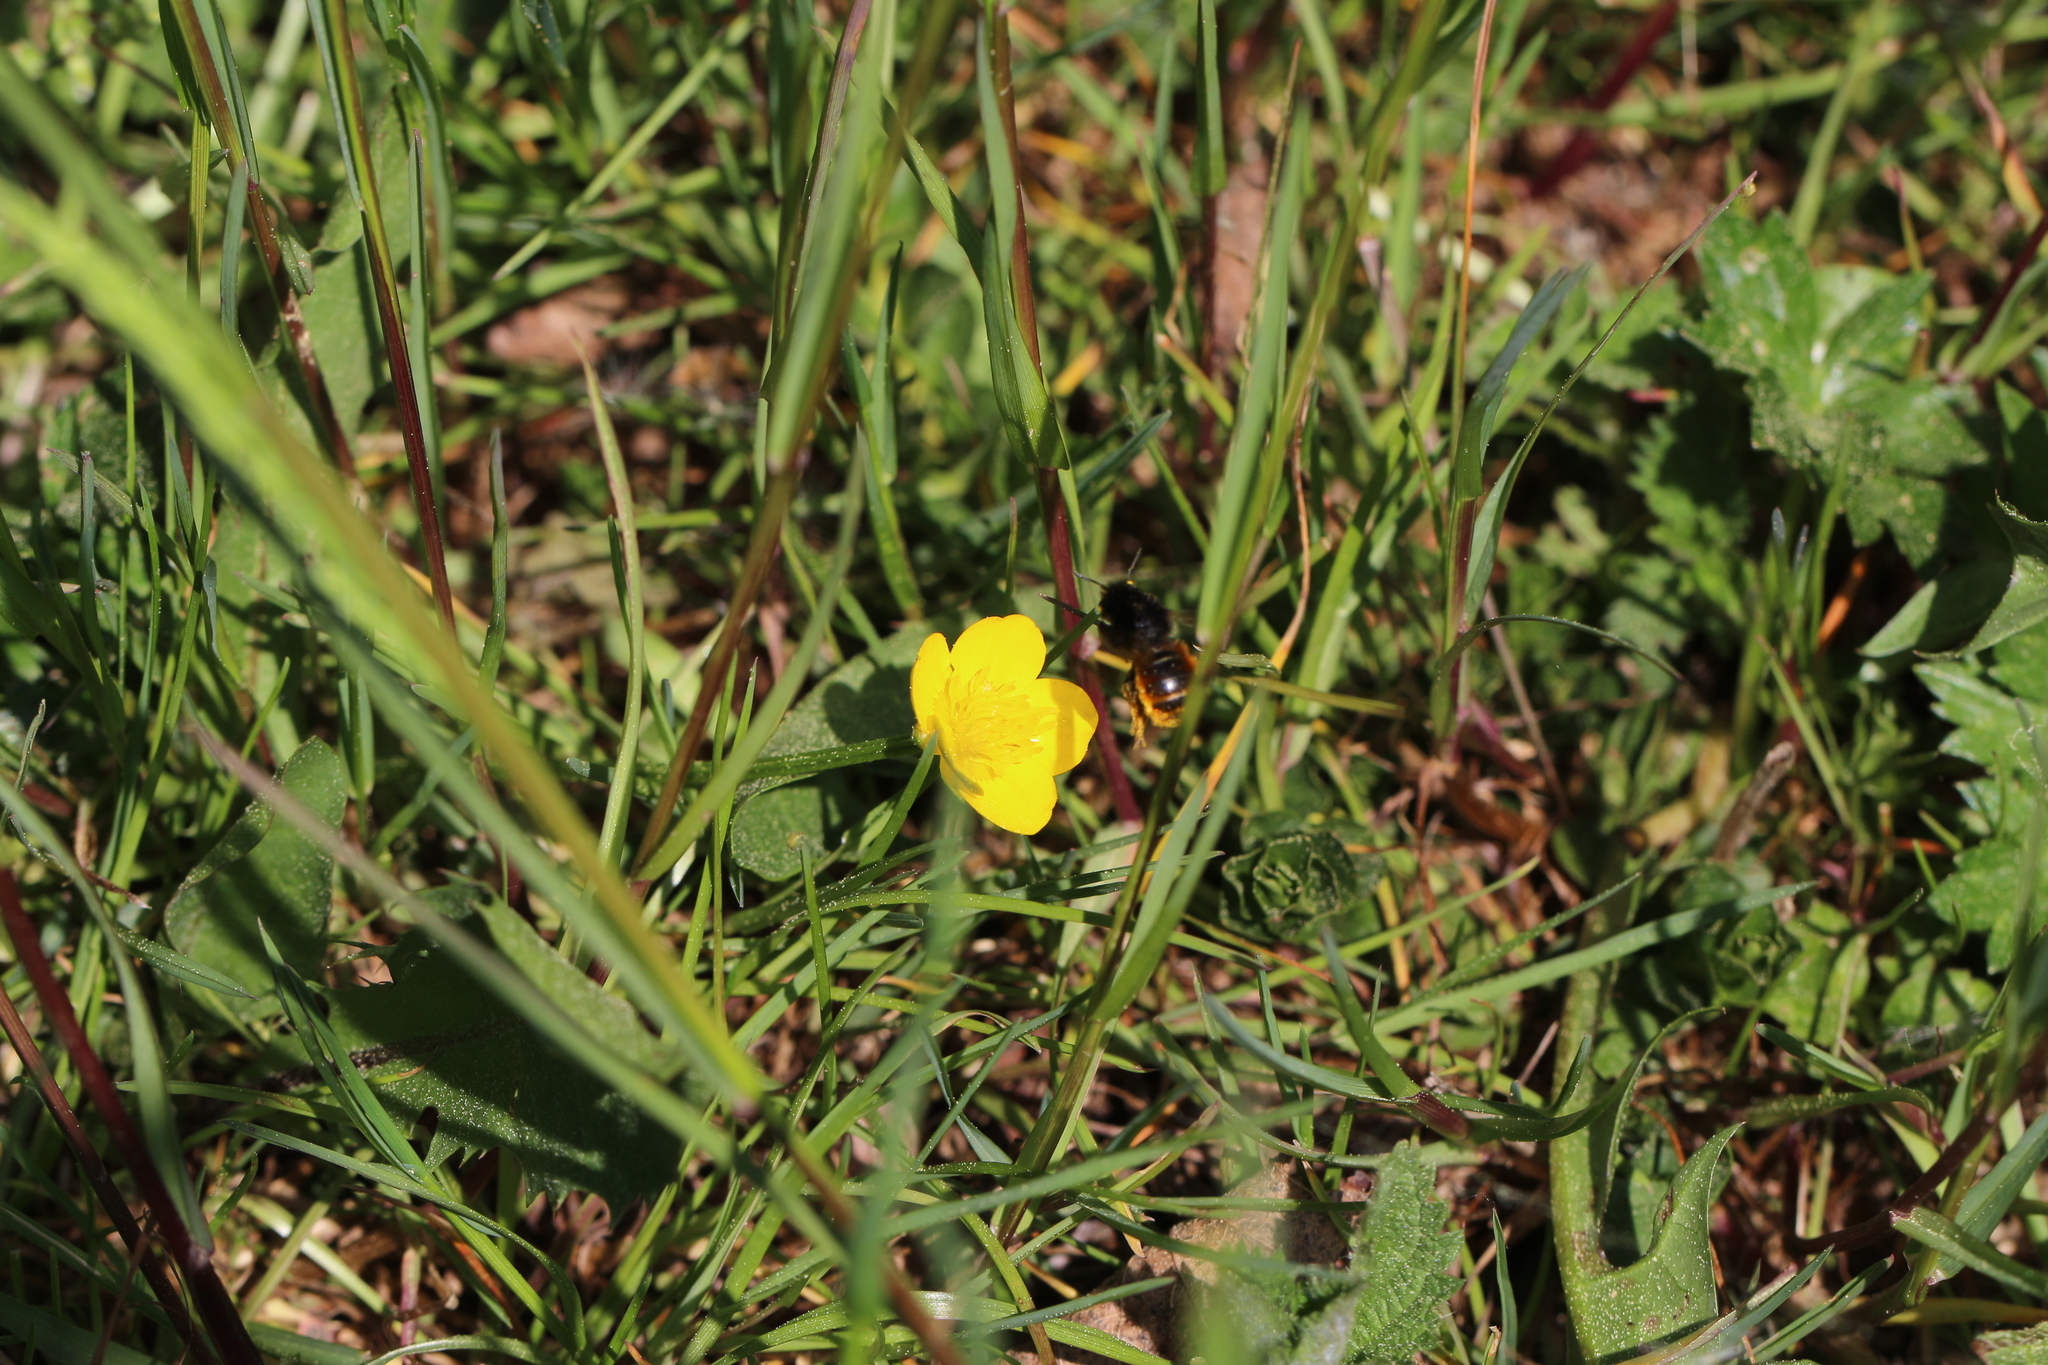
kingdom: Animalia
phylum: Arthropoda
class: Insecta
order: Hymenoptera
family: Megachilidae
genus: Osmia
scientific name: Osmia bicolor
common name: Red-tailed mason bee
